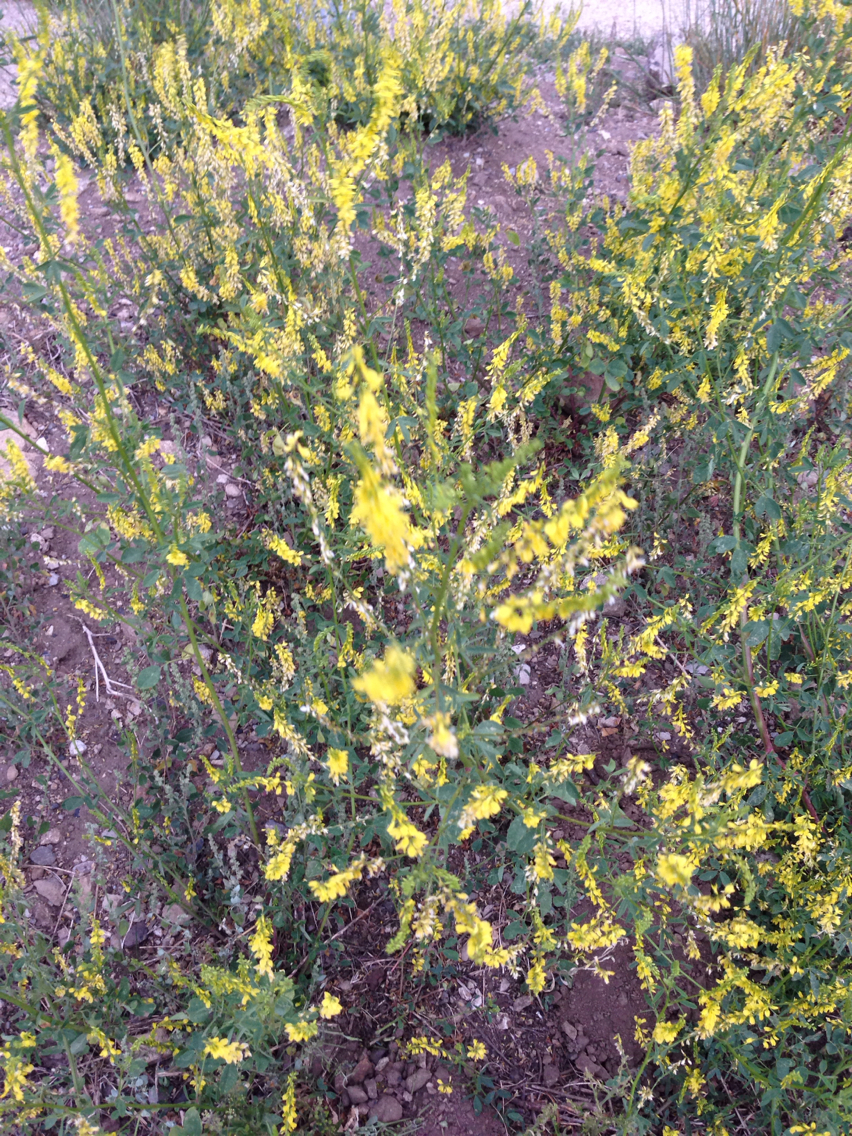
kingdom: Plantae
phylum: Tracheophyta
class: Magnoliopsida
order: Fabales
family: Fabaceae
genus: Melilotus
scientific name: Melilotus officinalis
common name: Sweetclover
